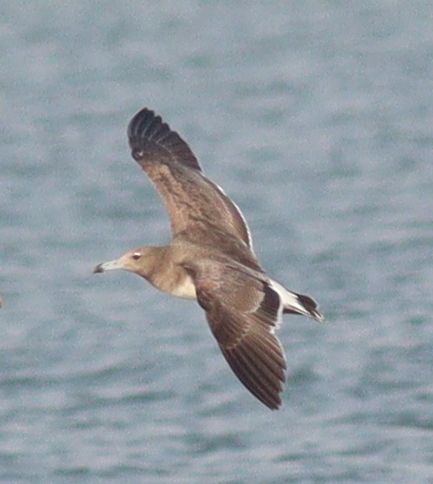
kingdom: Animalia
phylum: Chordata
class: Aves
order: Charadriiformes
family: Laridae
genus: Ichthyaetus
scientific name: Ichthyaetus hemprichii
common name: Sooty gull
